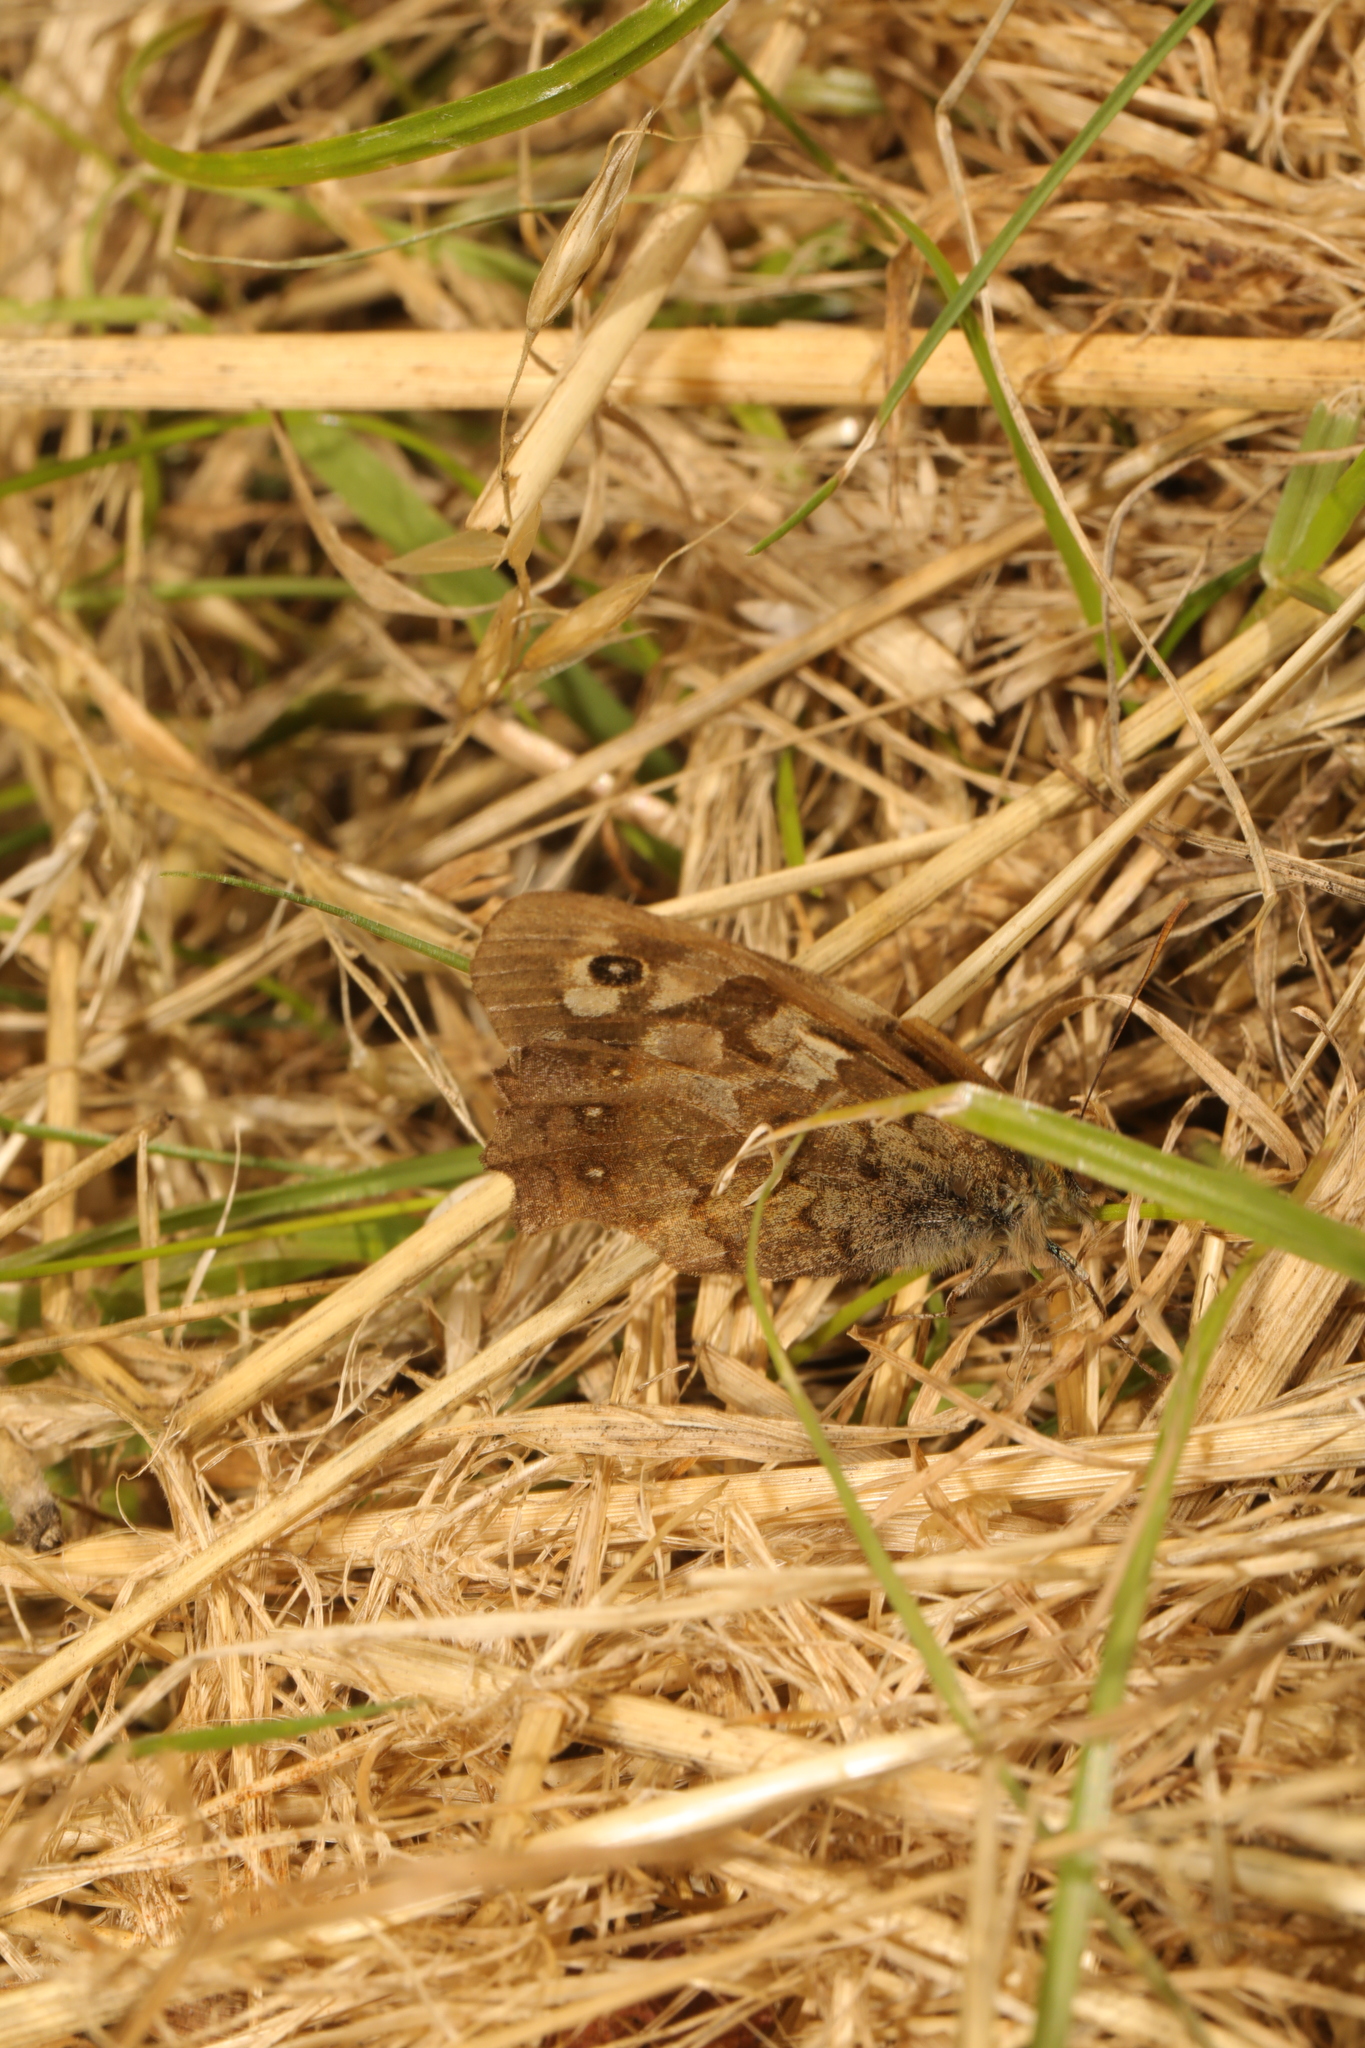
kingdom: Animalia
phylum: Arthropoda
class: Insecta
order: Lepidoptera
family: Nymphalidae
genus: Pararge
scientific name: Pararge aegeria
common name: Speckled wood
